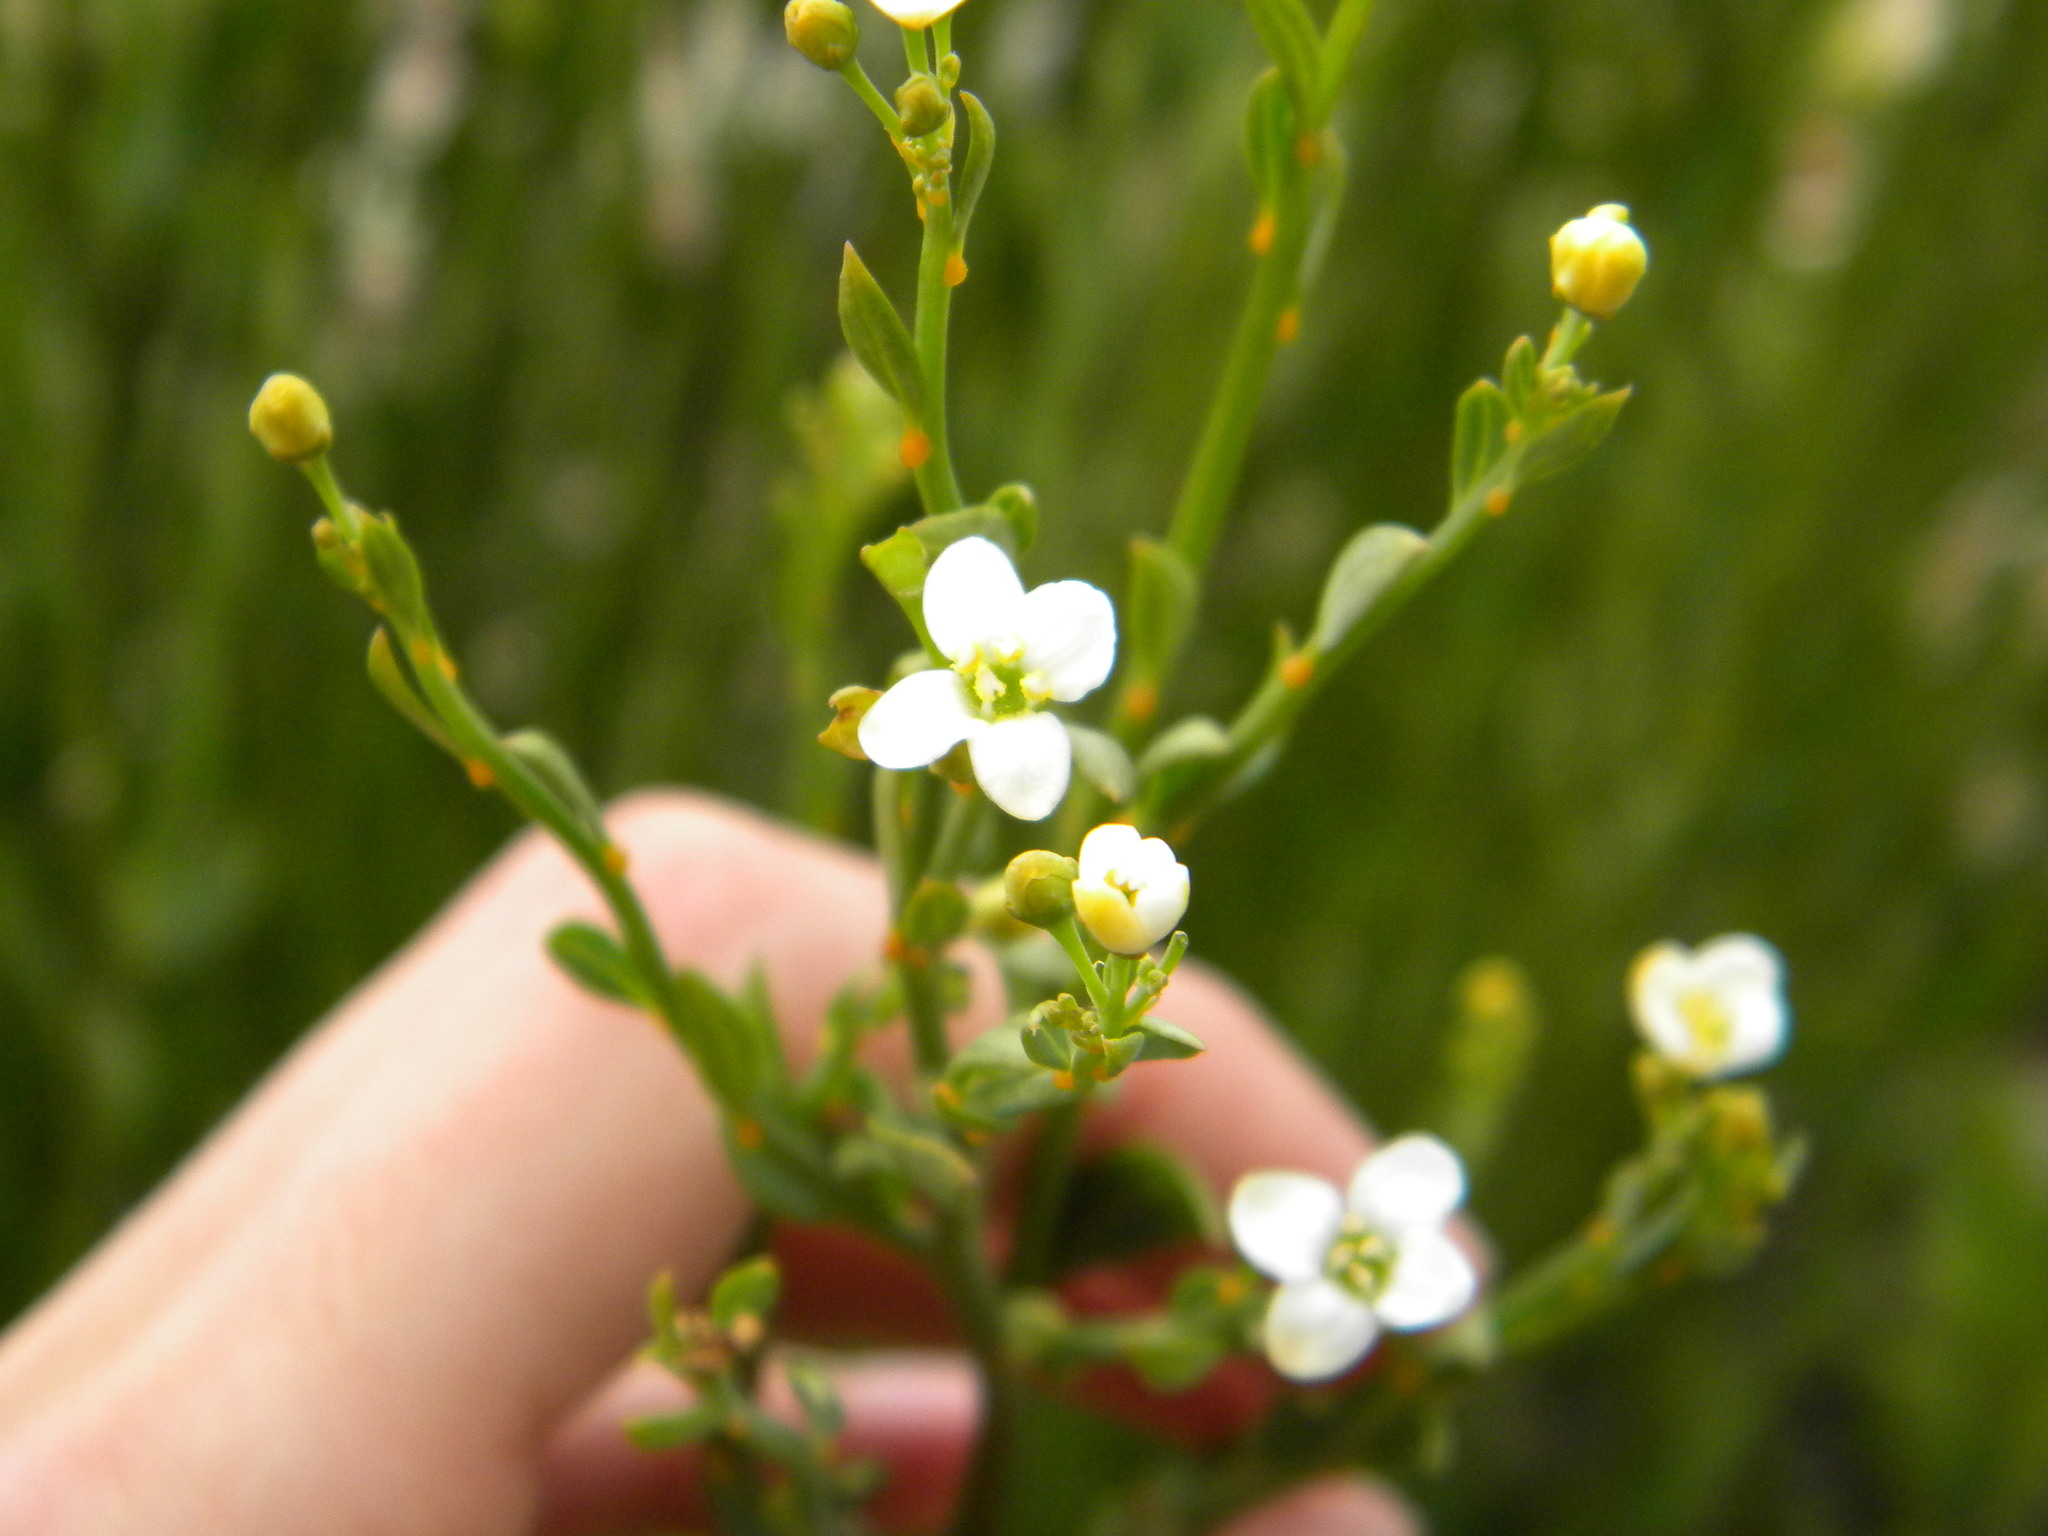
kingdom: Plantae
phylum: Tracheophyta
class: Magnoliopsida
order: Solanales
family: Montiniaceae
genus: Montinia
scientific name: Montinia caryophyllacea
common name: Wild clove-bush
